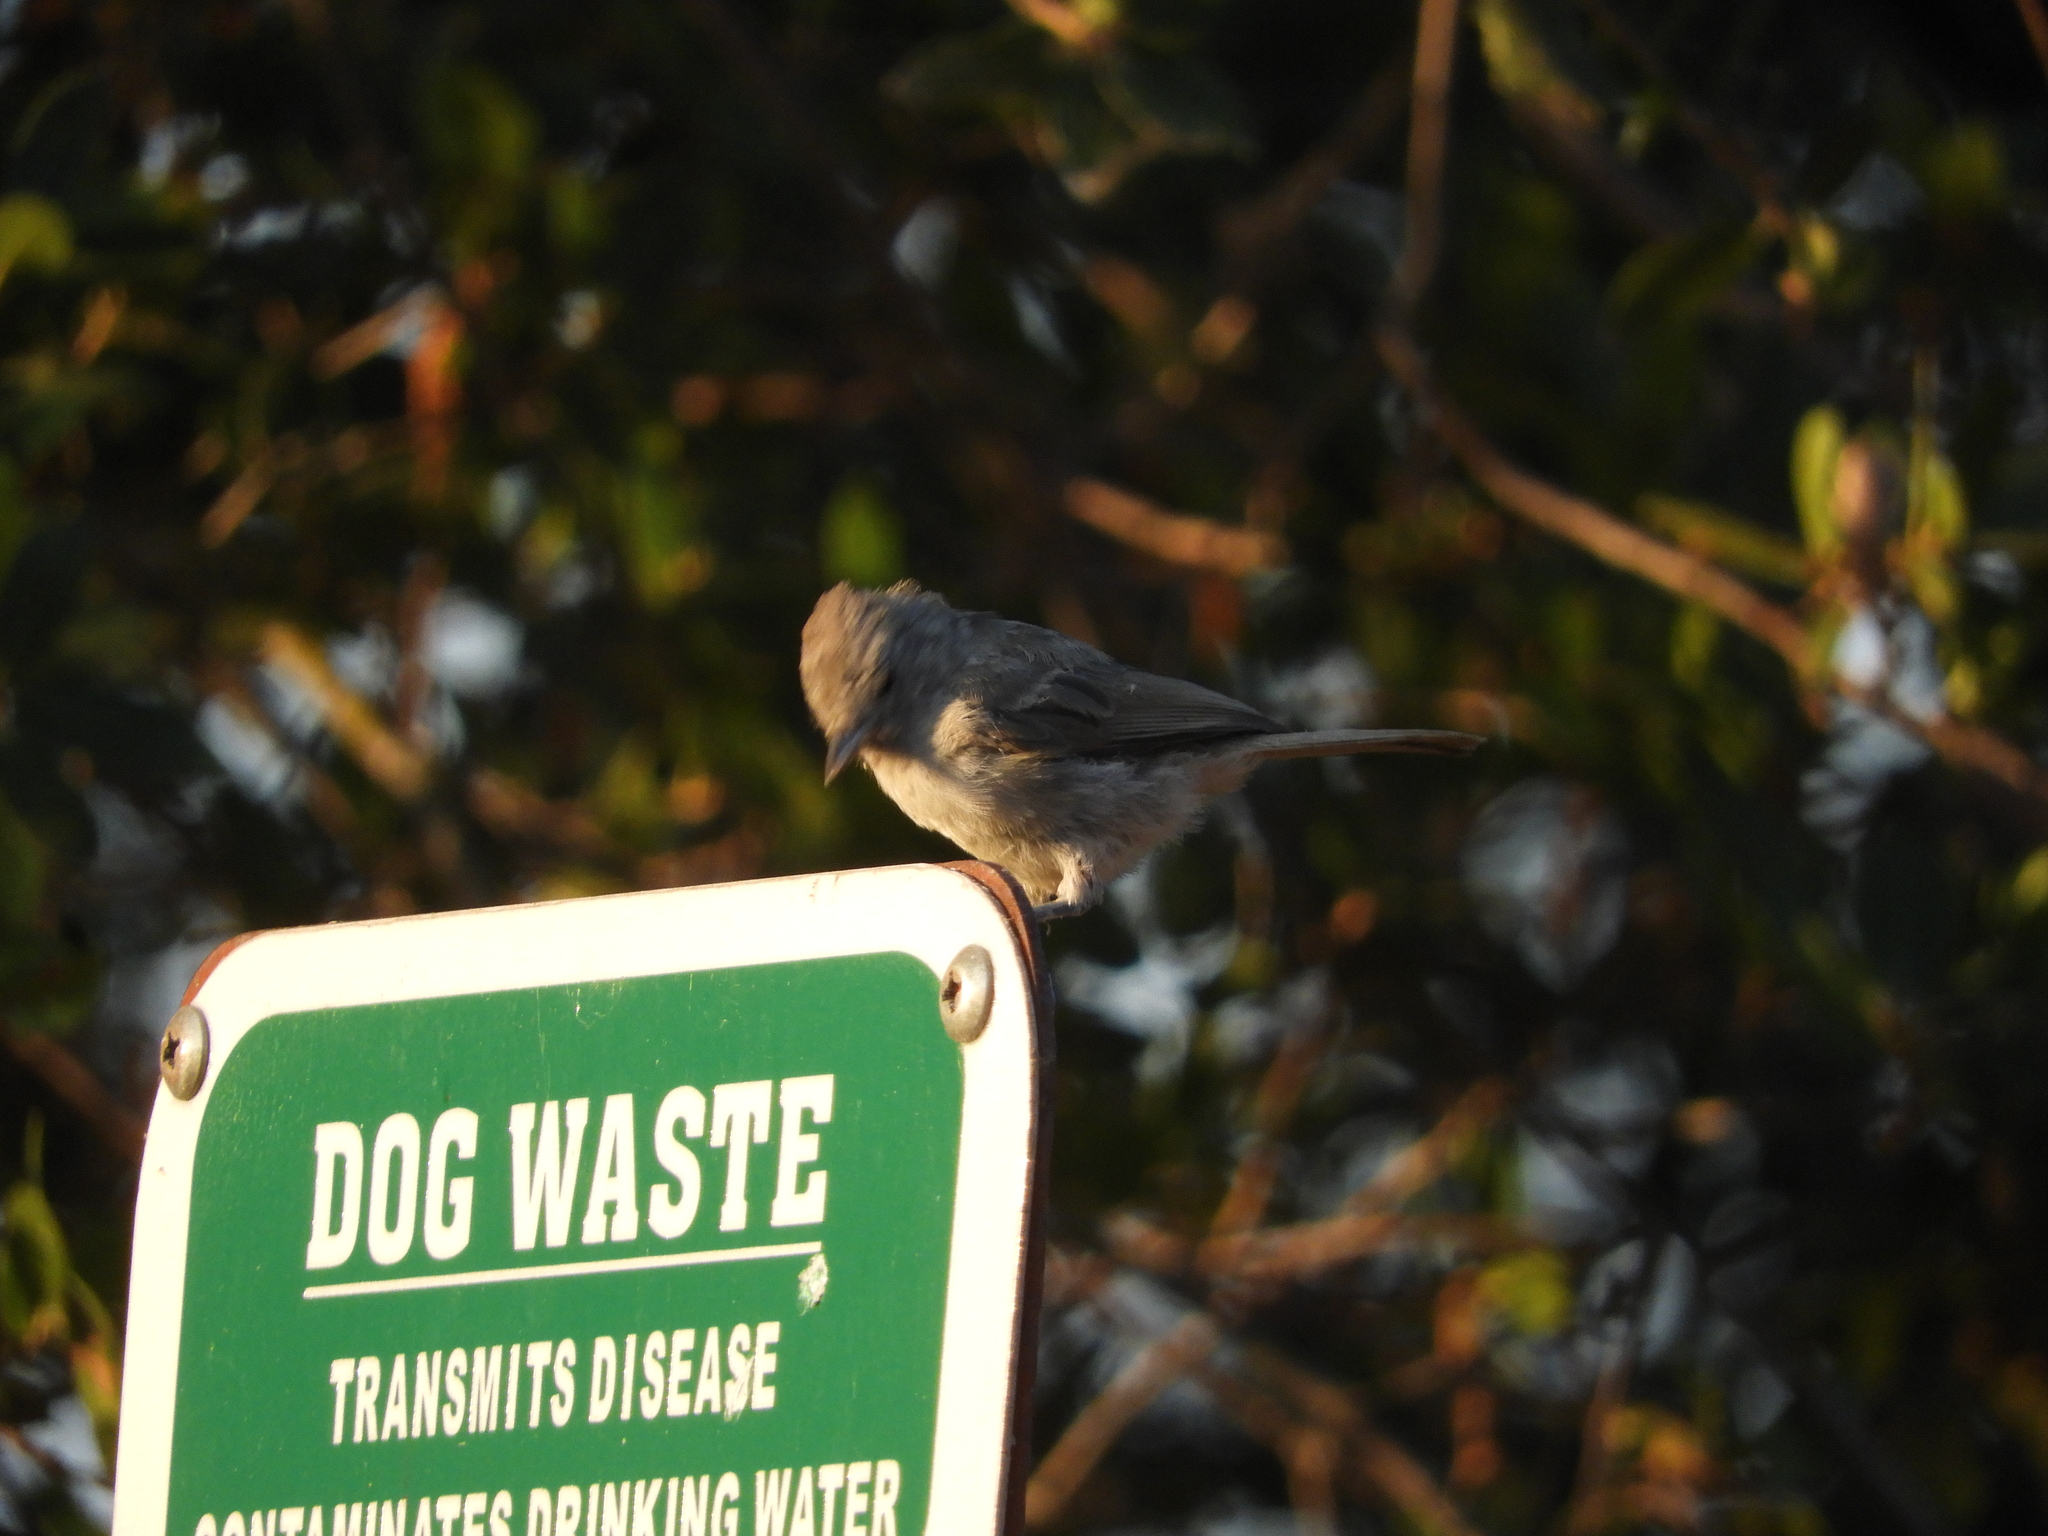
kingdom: Animalia
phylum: Chordata
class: Aves
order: Passeriformes
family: Paridae
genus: Baeolophus
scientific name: Baeolophus inornatus
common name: Oak titmouse
